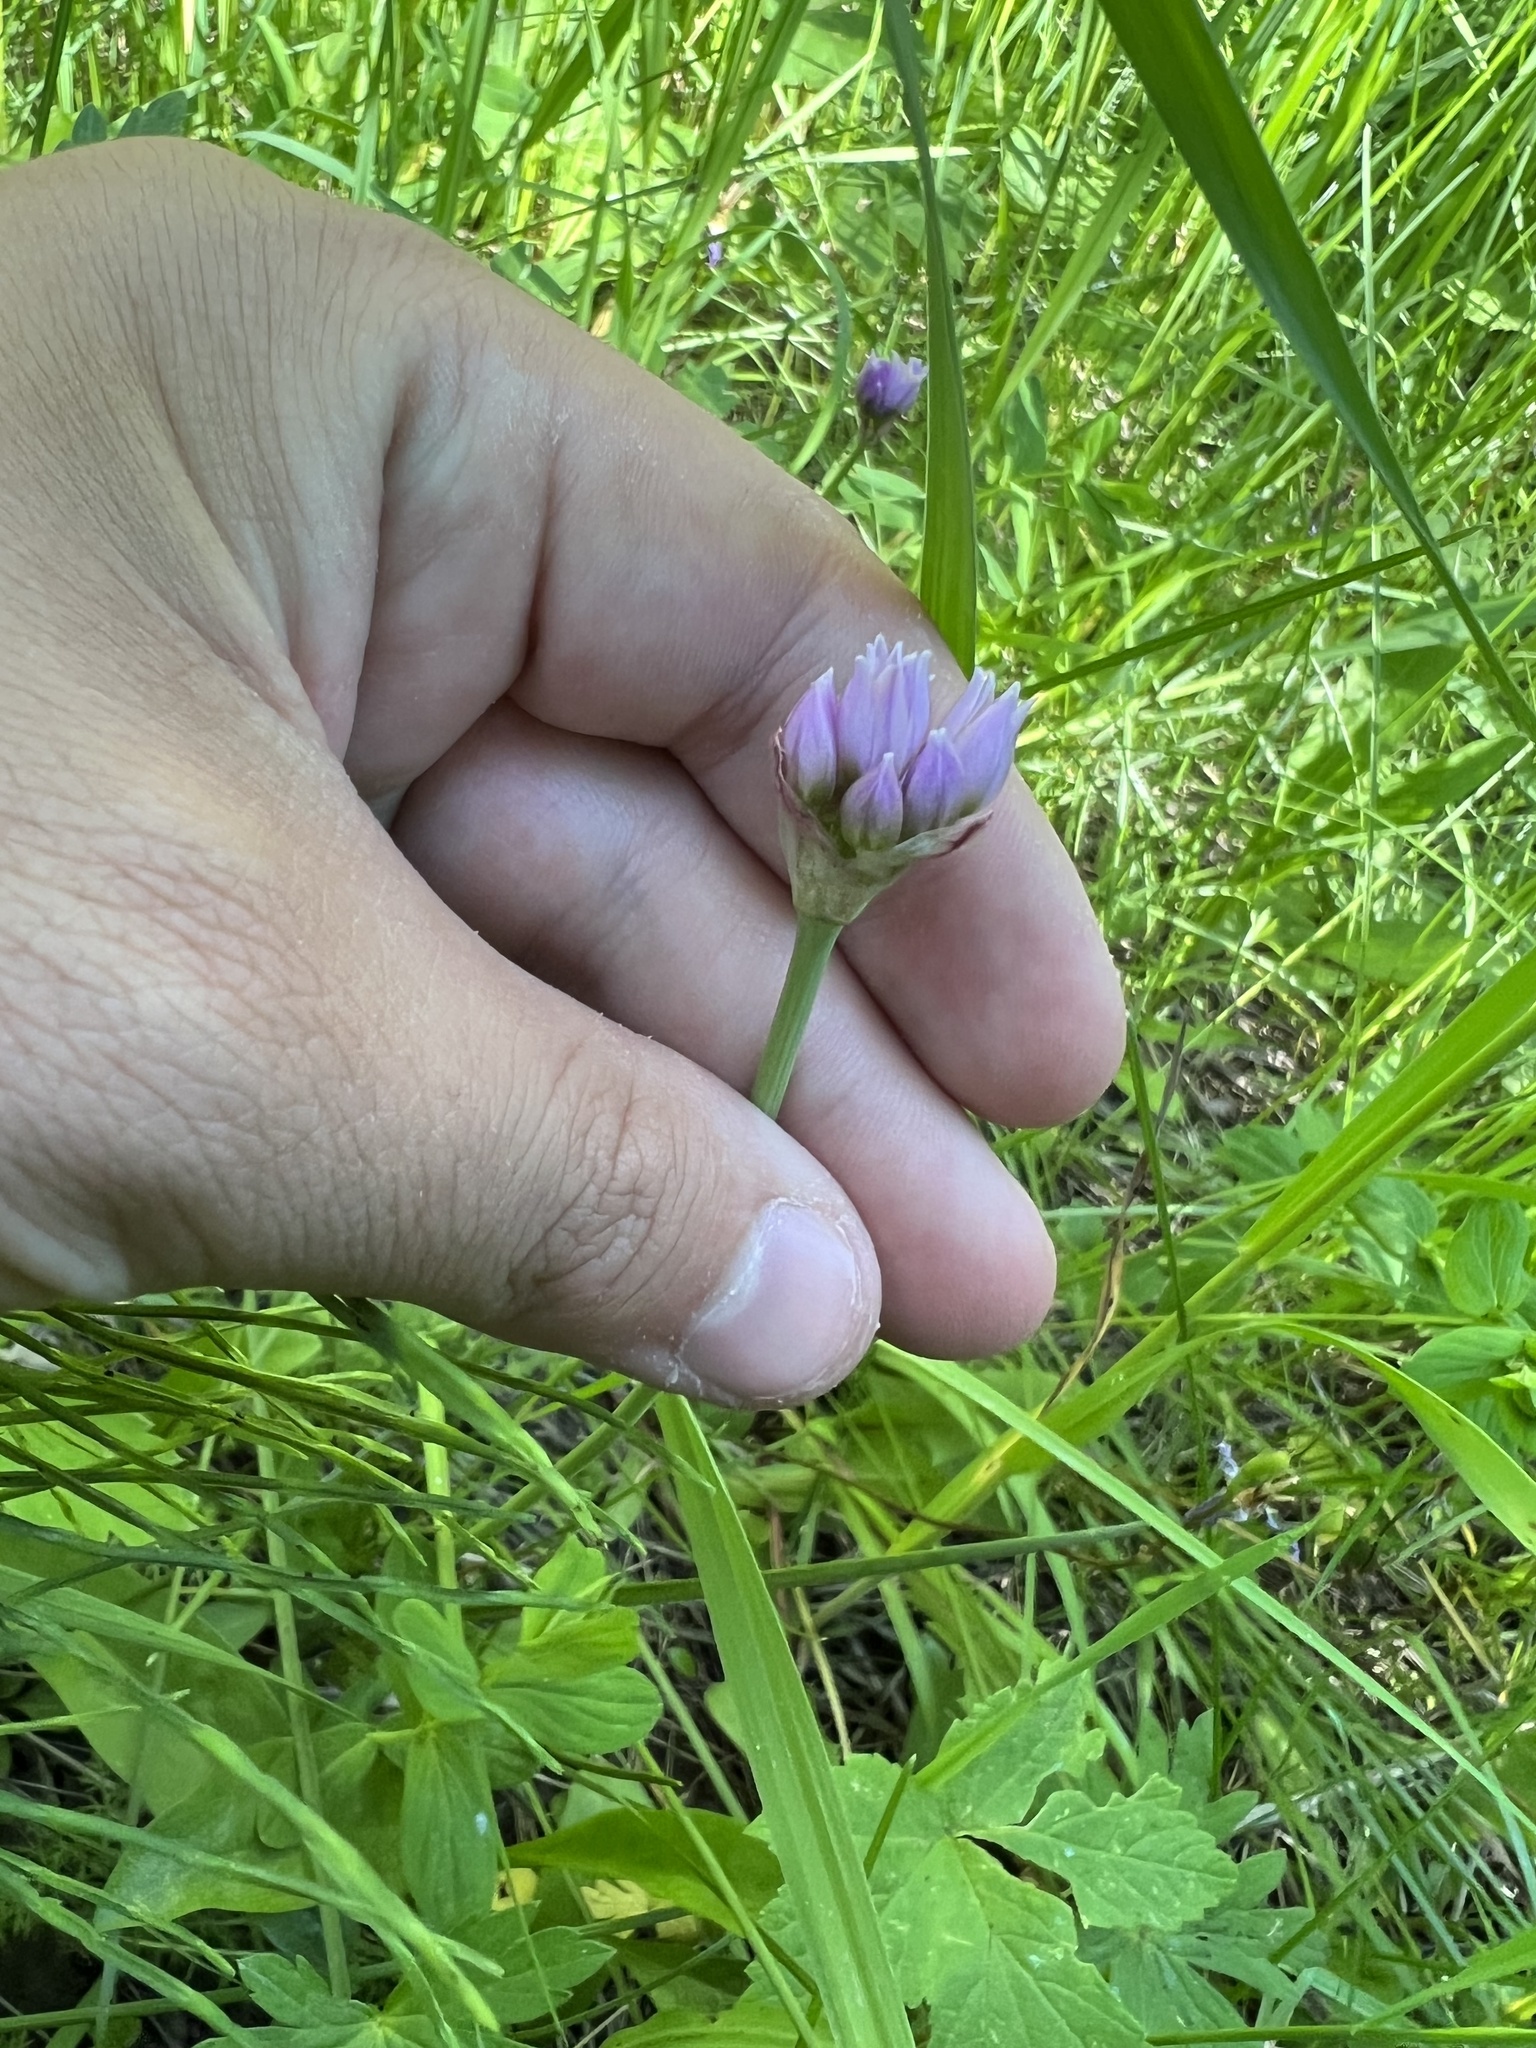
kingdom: Plantae
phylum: Tracheophyta
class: Liliopsida
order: Asparagales
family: Amaryllidaceae
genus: Allium
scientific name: Allium geyeri
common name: Geyer's onion
